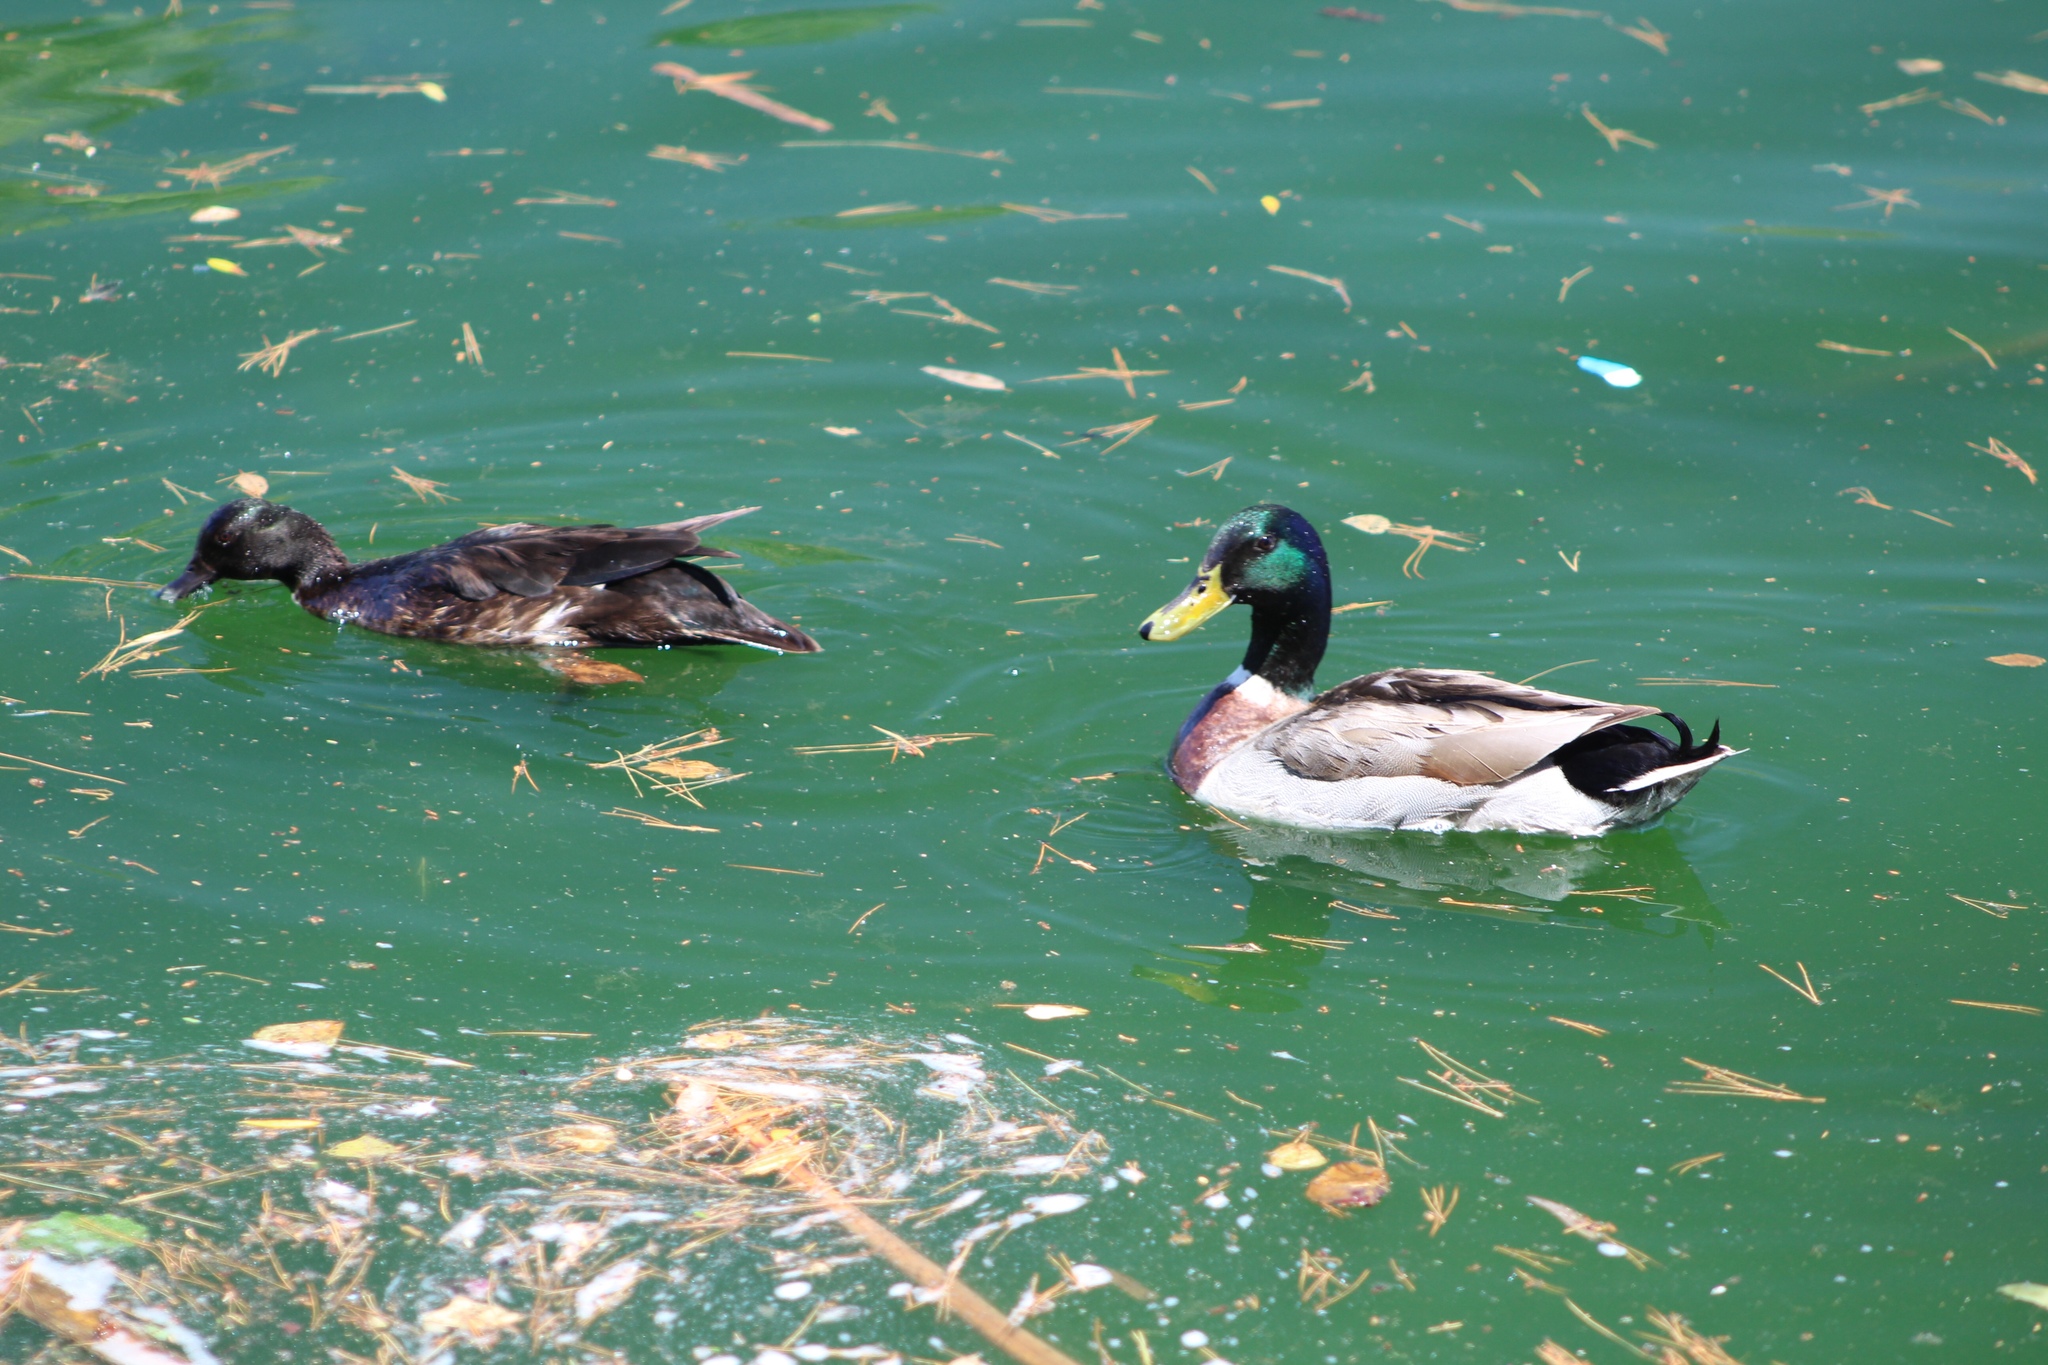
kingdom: Animalia
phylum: Chordata
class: Aves
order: Anseriformes
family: Anatidae
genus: Anas
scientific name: Anas platyrhynchos
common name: Mallard
